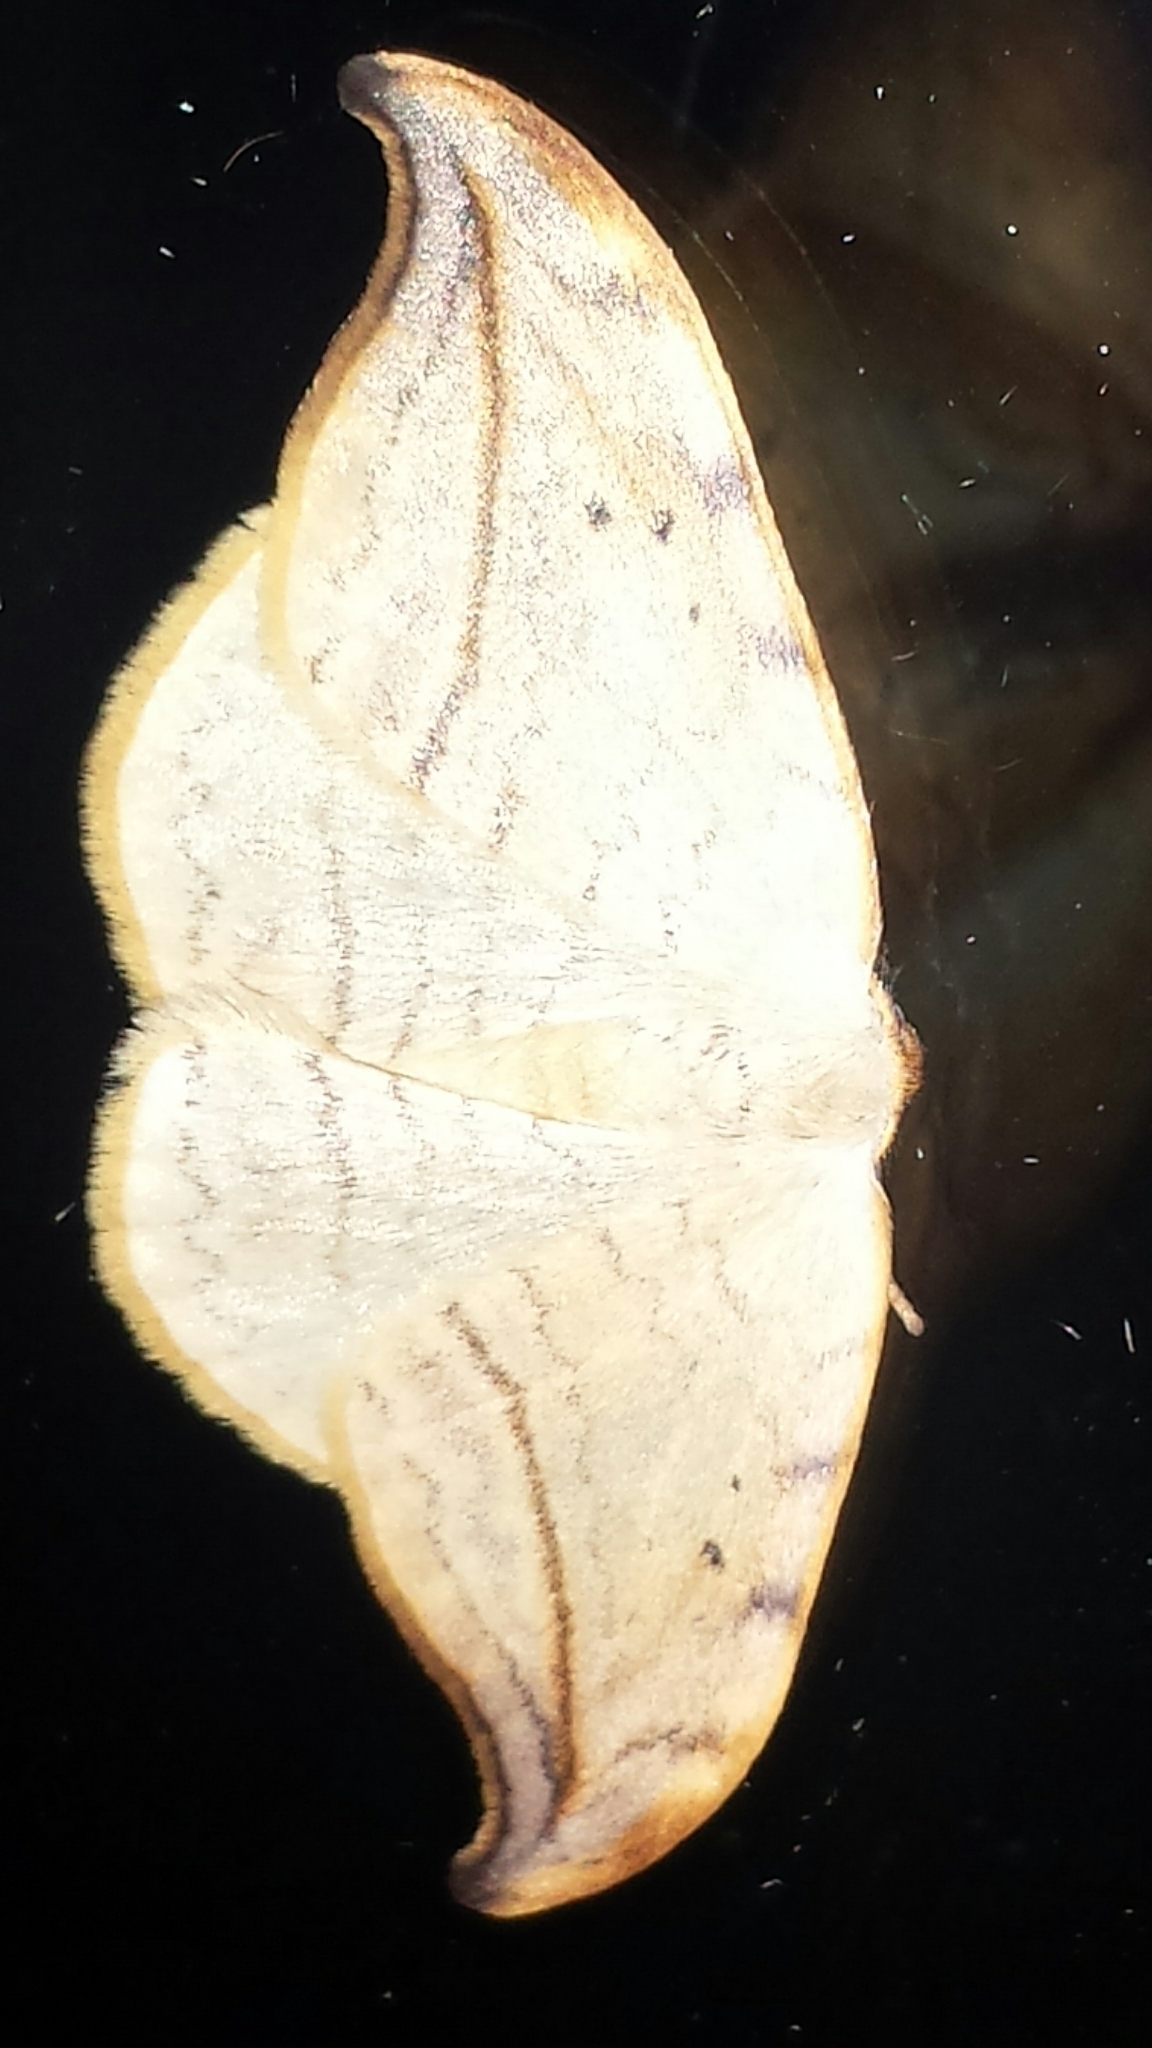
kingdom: Animalia
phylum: Arthropoda
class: Insecta
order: Lepidoptera
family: Drepanidae
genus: Drepana
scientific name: Drepana arcuata
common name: Arched hooktip moth
